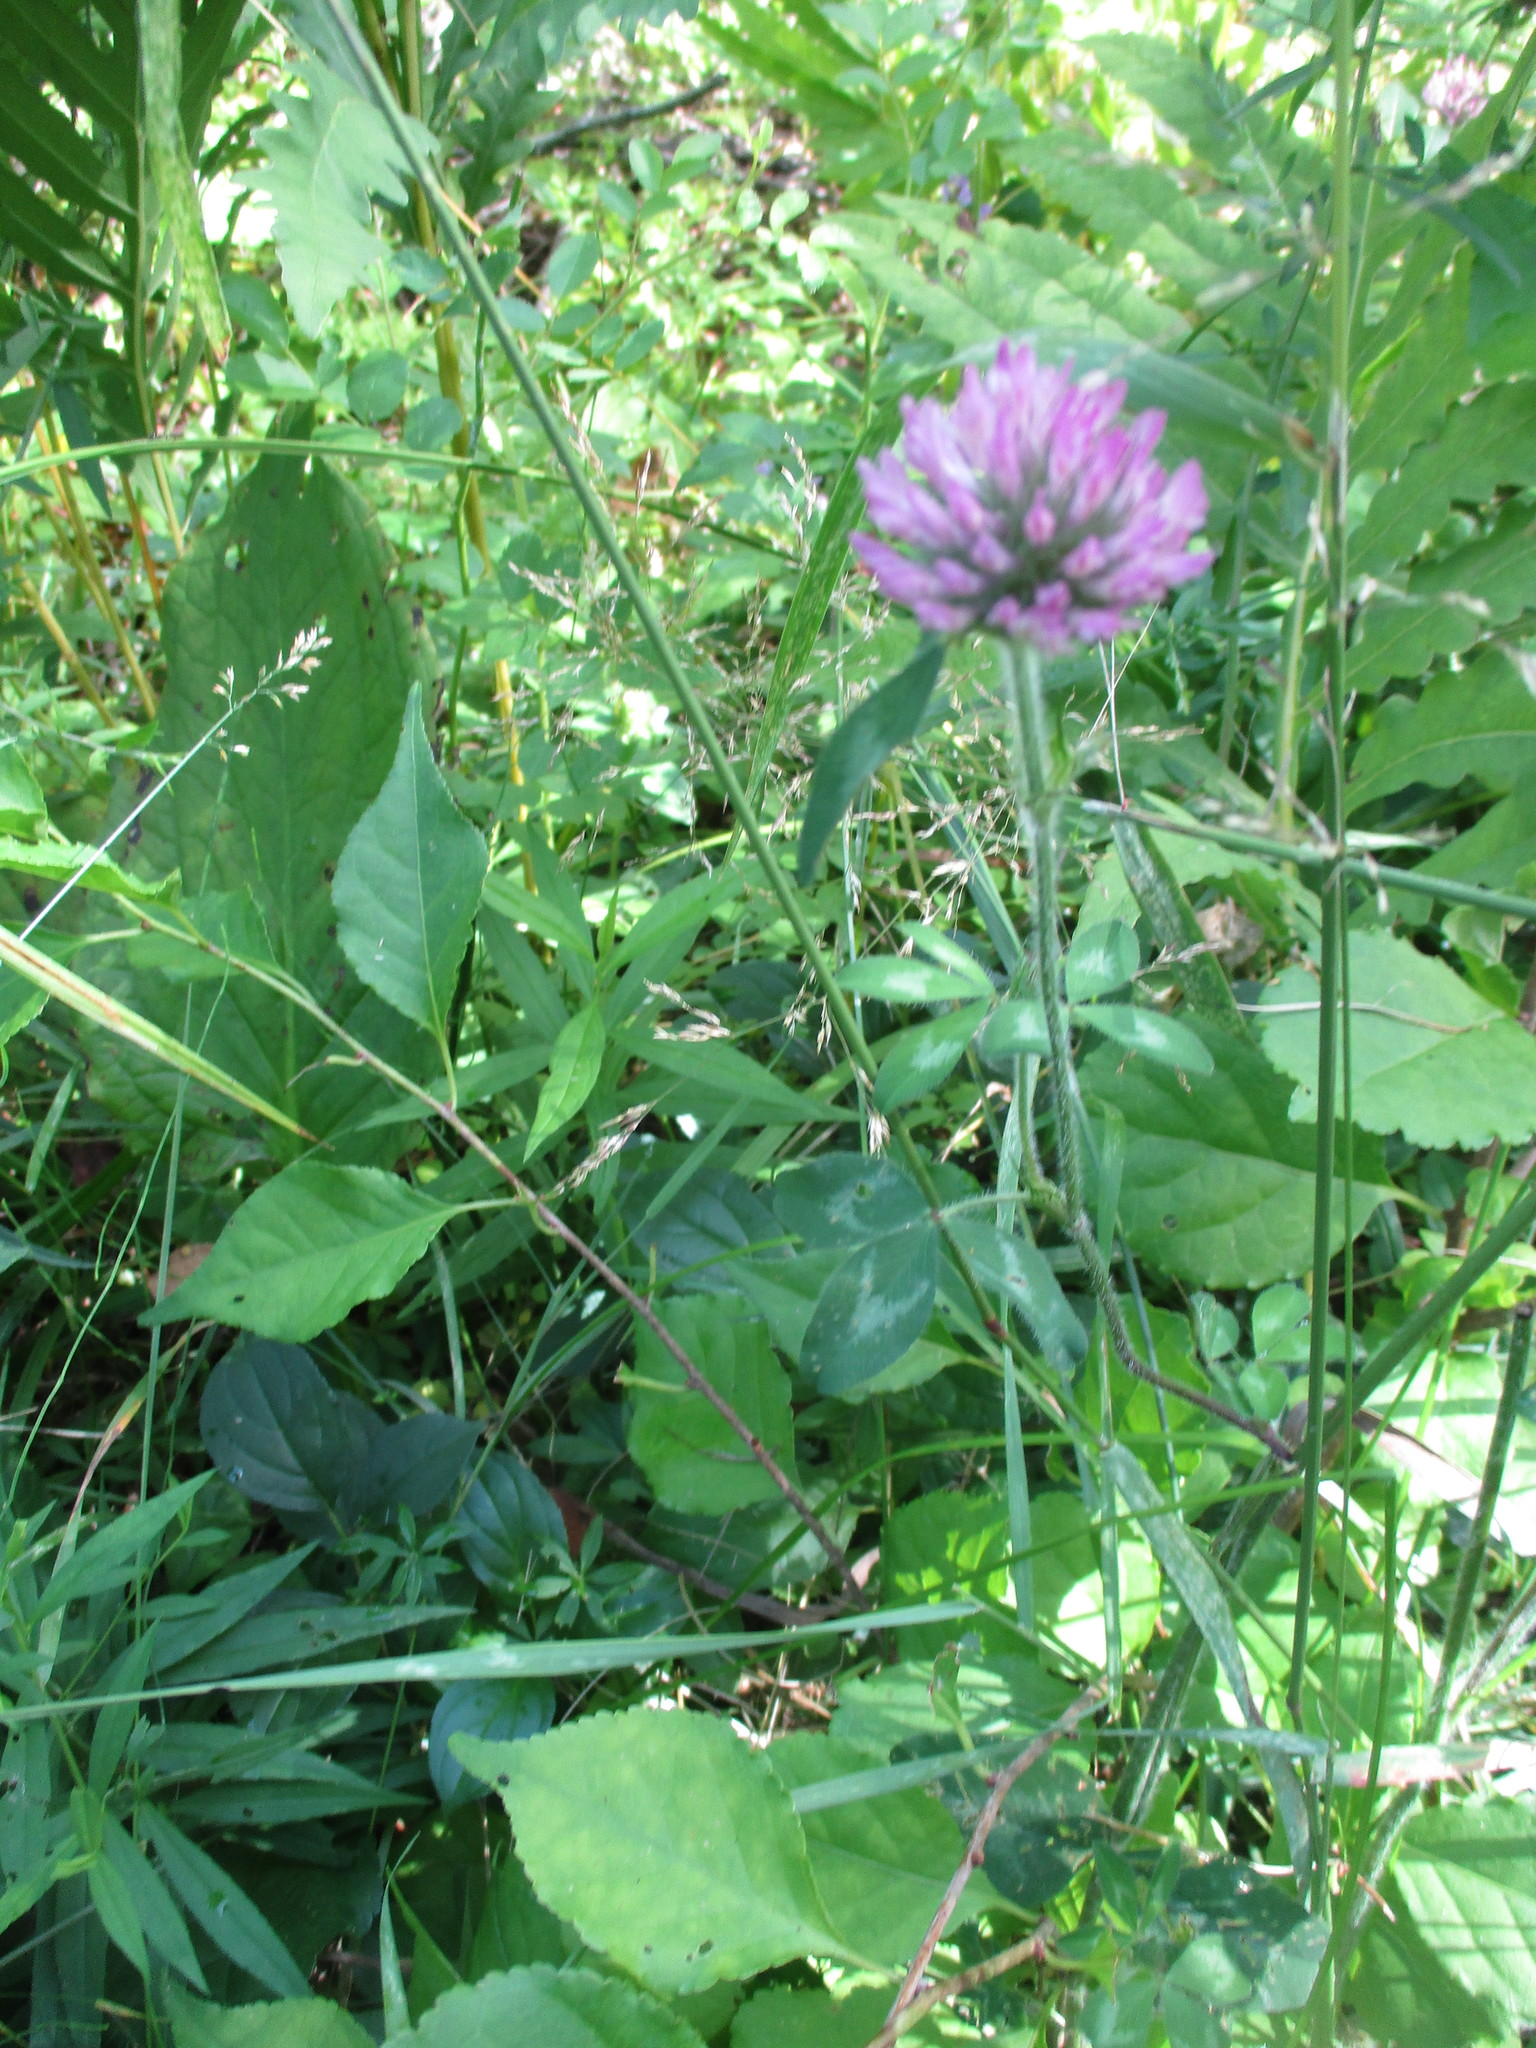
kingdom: Plantae
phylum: Tracheophyta
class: Magnoliopsida
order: Fabales
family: Fabaceae
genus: Trifolium
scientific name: Trifolium pratense
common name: Red clover
